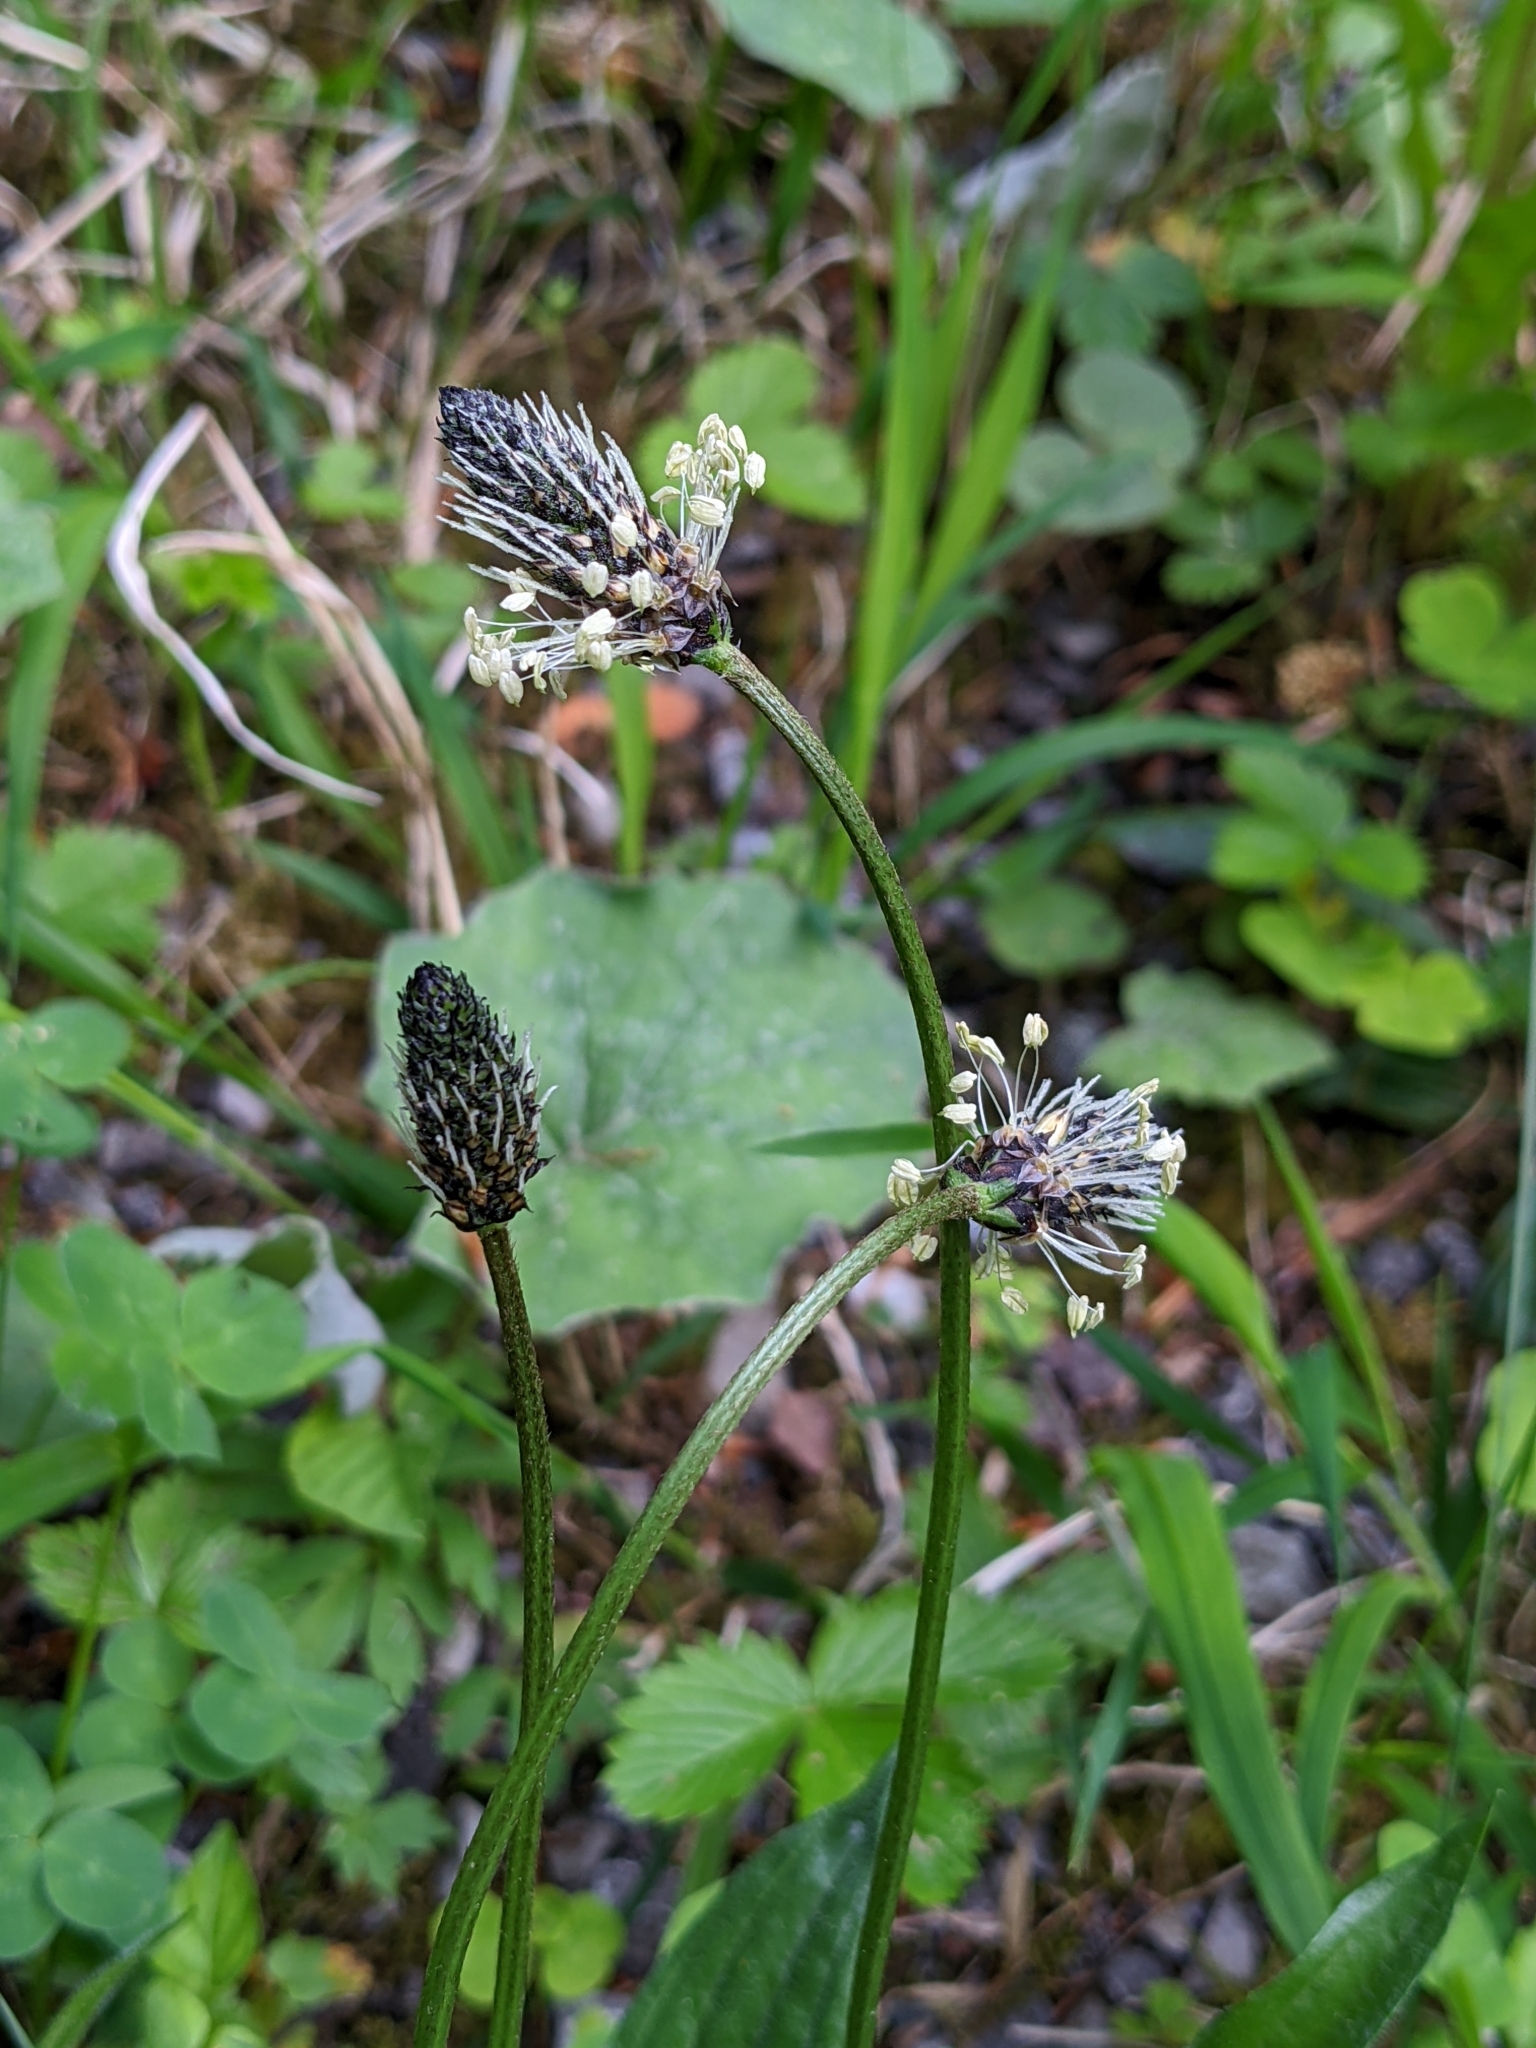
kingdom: Plantae
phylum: Tracheophyta
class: Magnoliopsida
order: Lamiales
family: Plantaginaceae
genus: Plantago
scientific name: Plantago lanceolata
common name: Ribwort plantain
